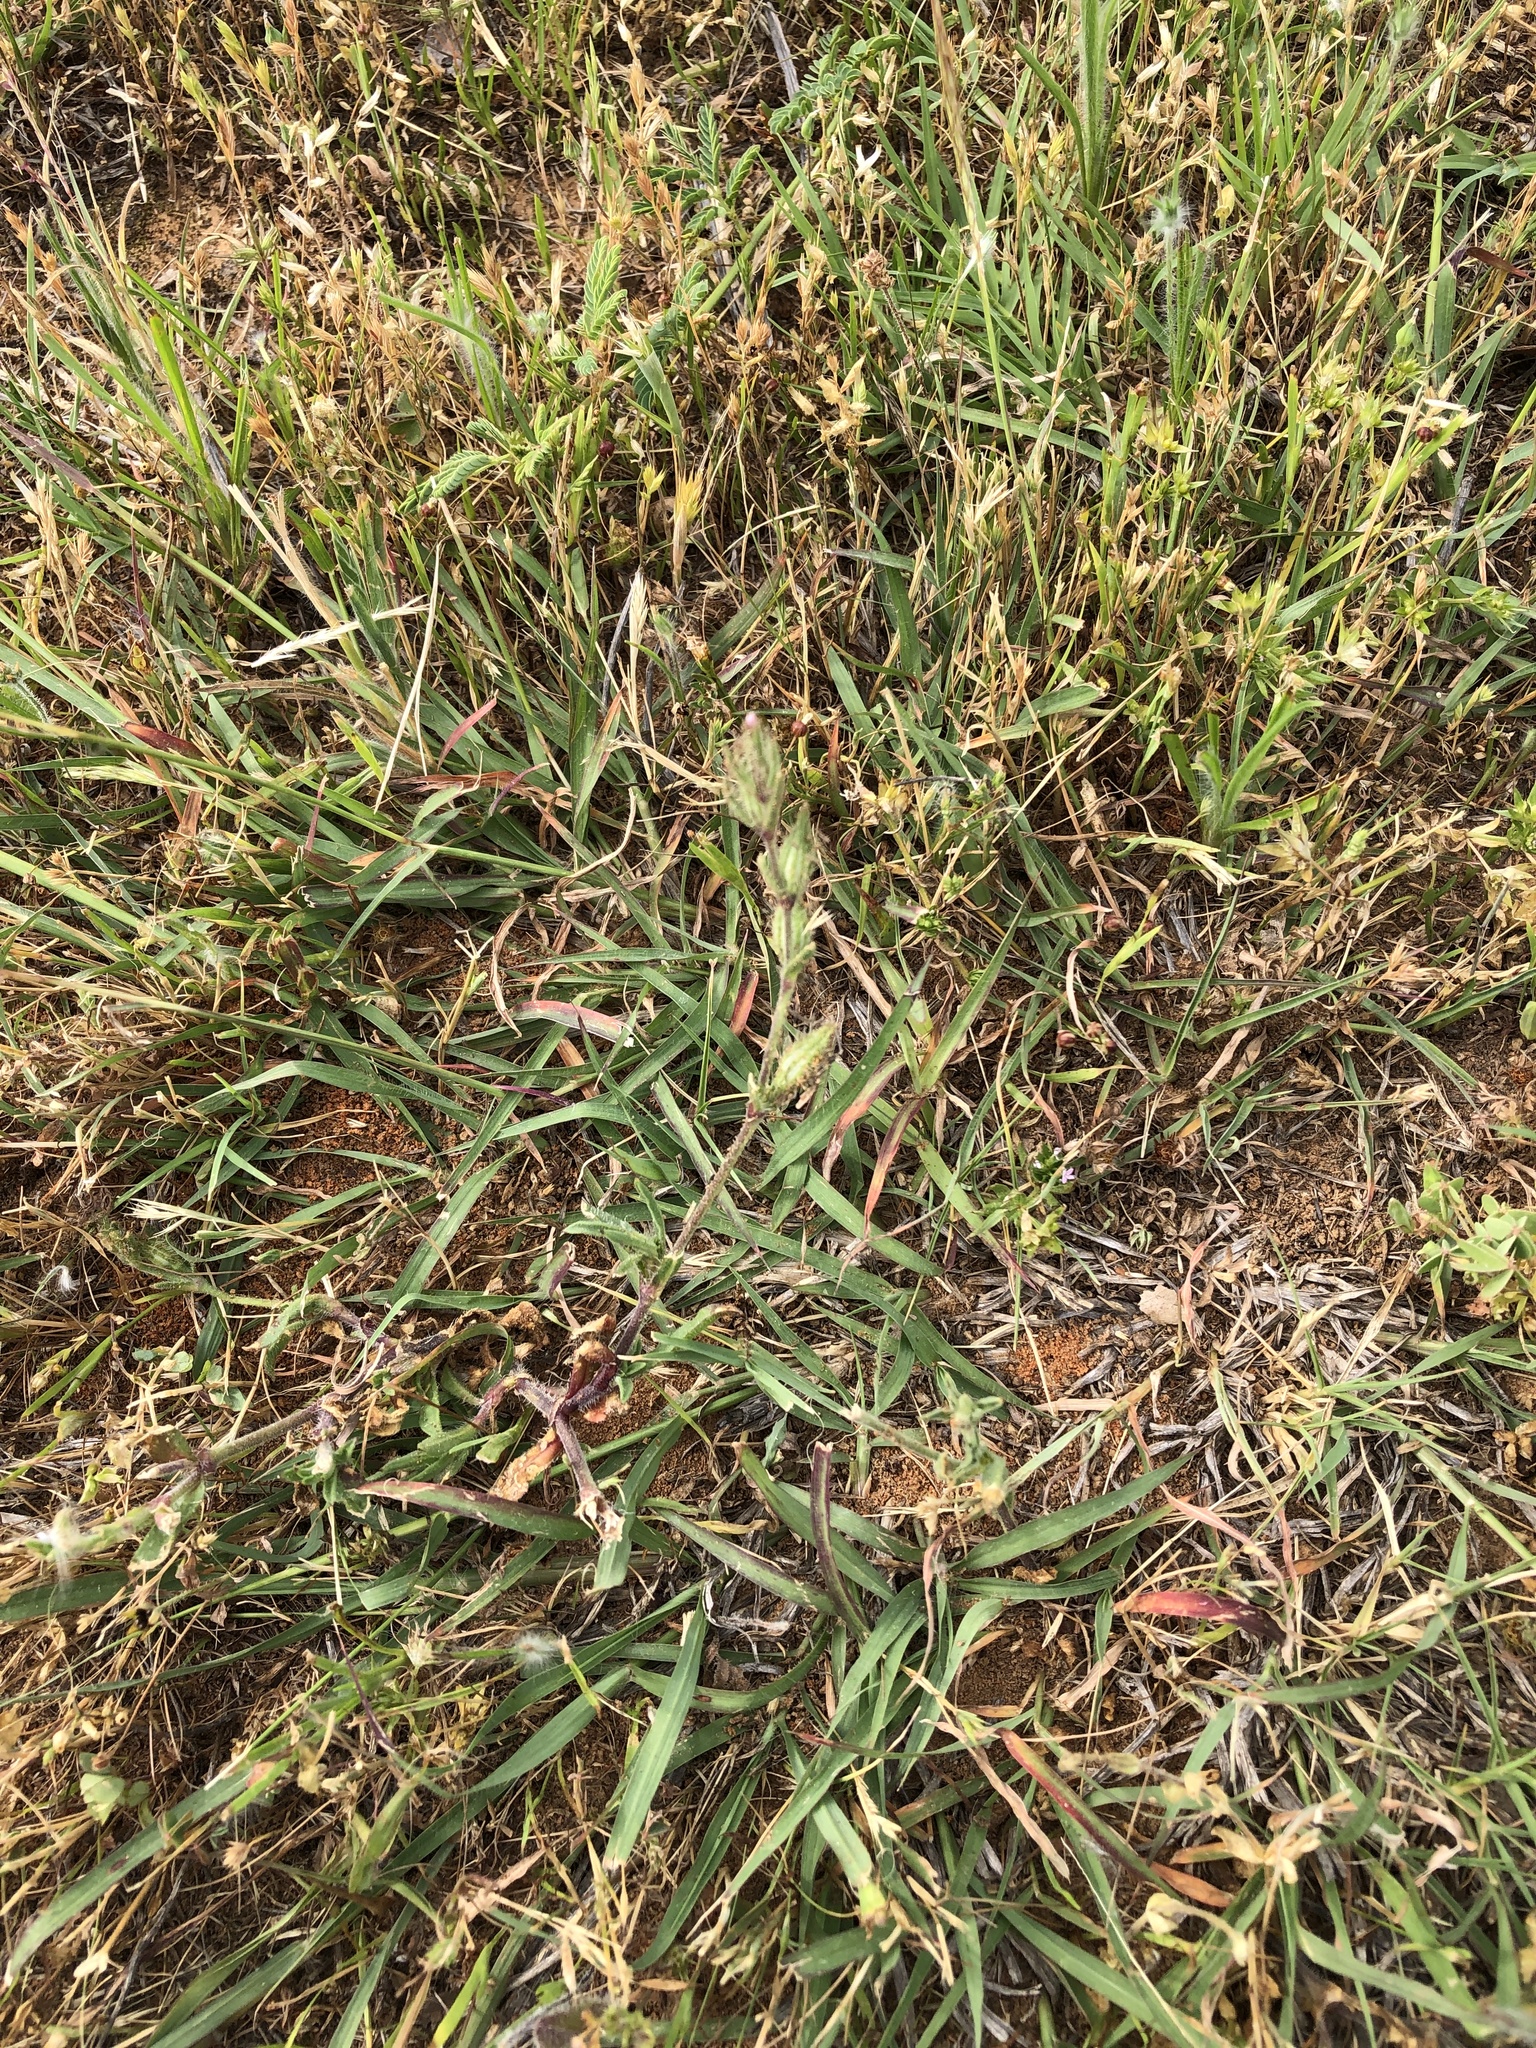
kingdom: Plantae
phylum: Tracheophyta
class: Magnoliopsida
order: Caryophyllales
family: Caryophyllaceae
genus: Silene
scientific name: Silene gallica
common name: Small-flowered catchfly
